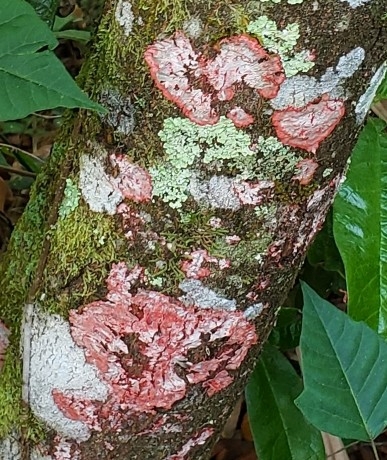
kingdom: Fungi
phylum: Ascomycota
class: Arthoniomycetes
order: Arthoniales
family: Arthoniaceae
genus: Herpothallon
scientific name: Herpothallon rubrocinctum
